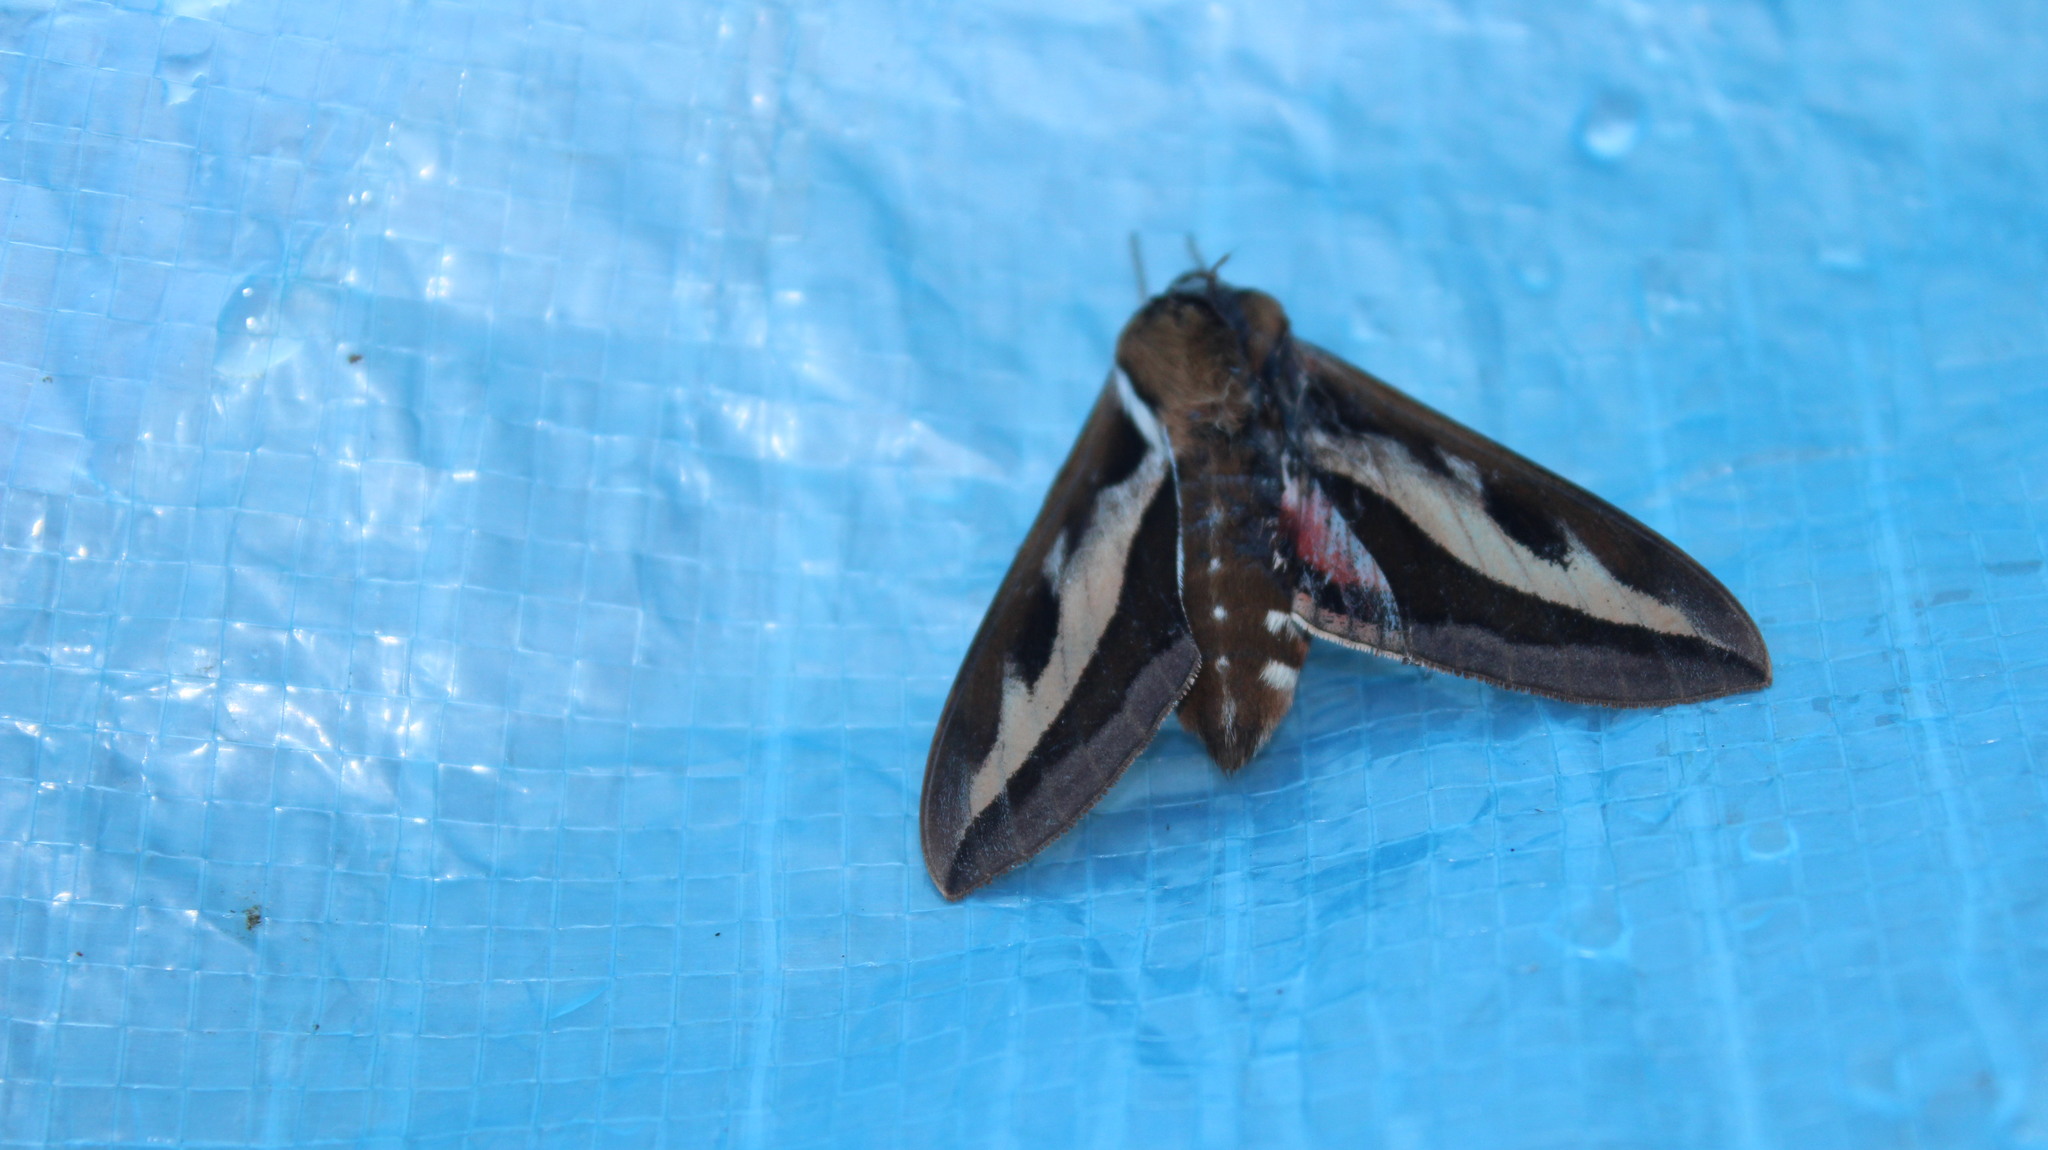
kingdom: Animalia
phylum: Arthropoda
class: Insecta
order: Lepidoptera
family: Sphingidae
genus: Hyles
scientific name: Hyles gallii
